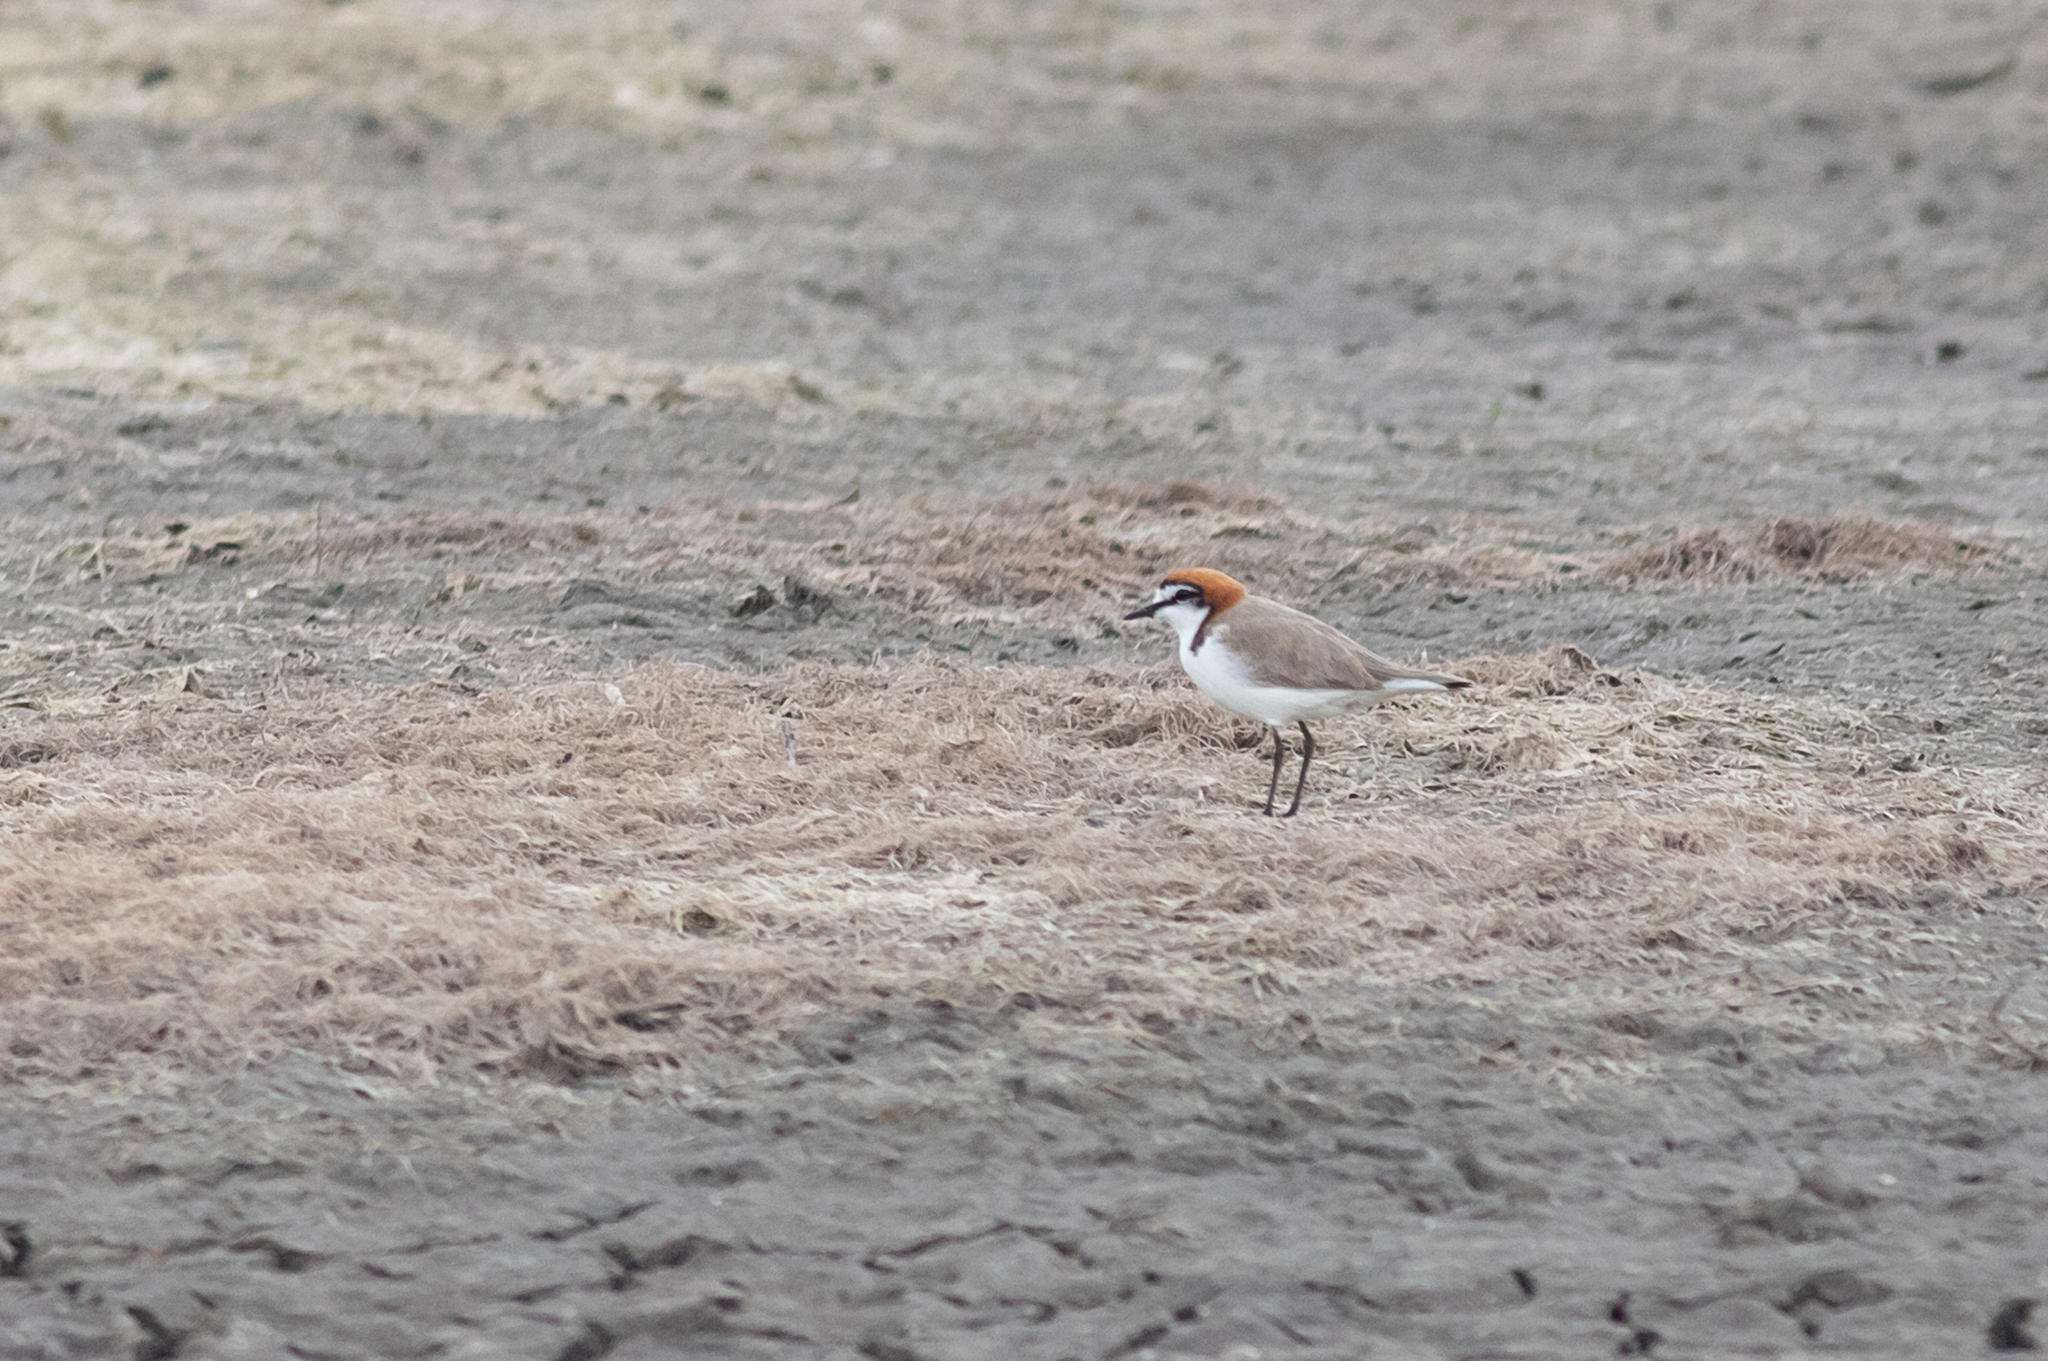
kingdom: Animalia
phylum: Chordata
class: Aves
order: Charadriiformes
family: Charadriidae
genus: Anarhynchus
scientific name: Anarhynchus
